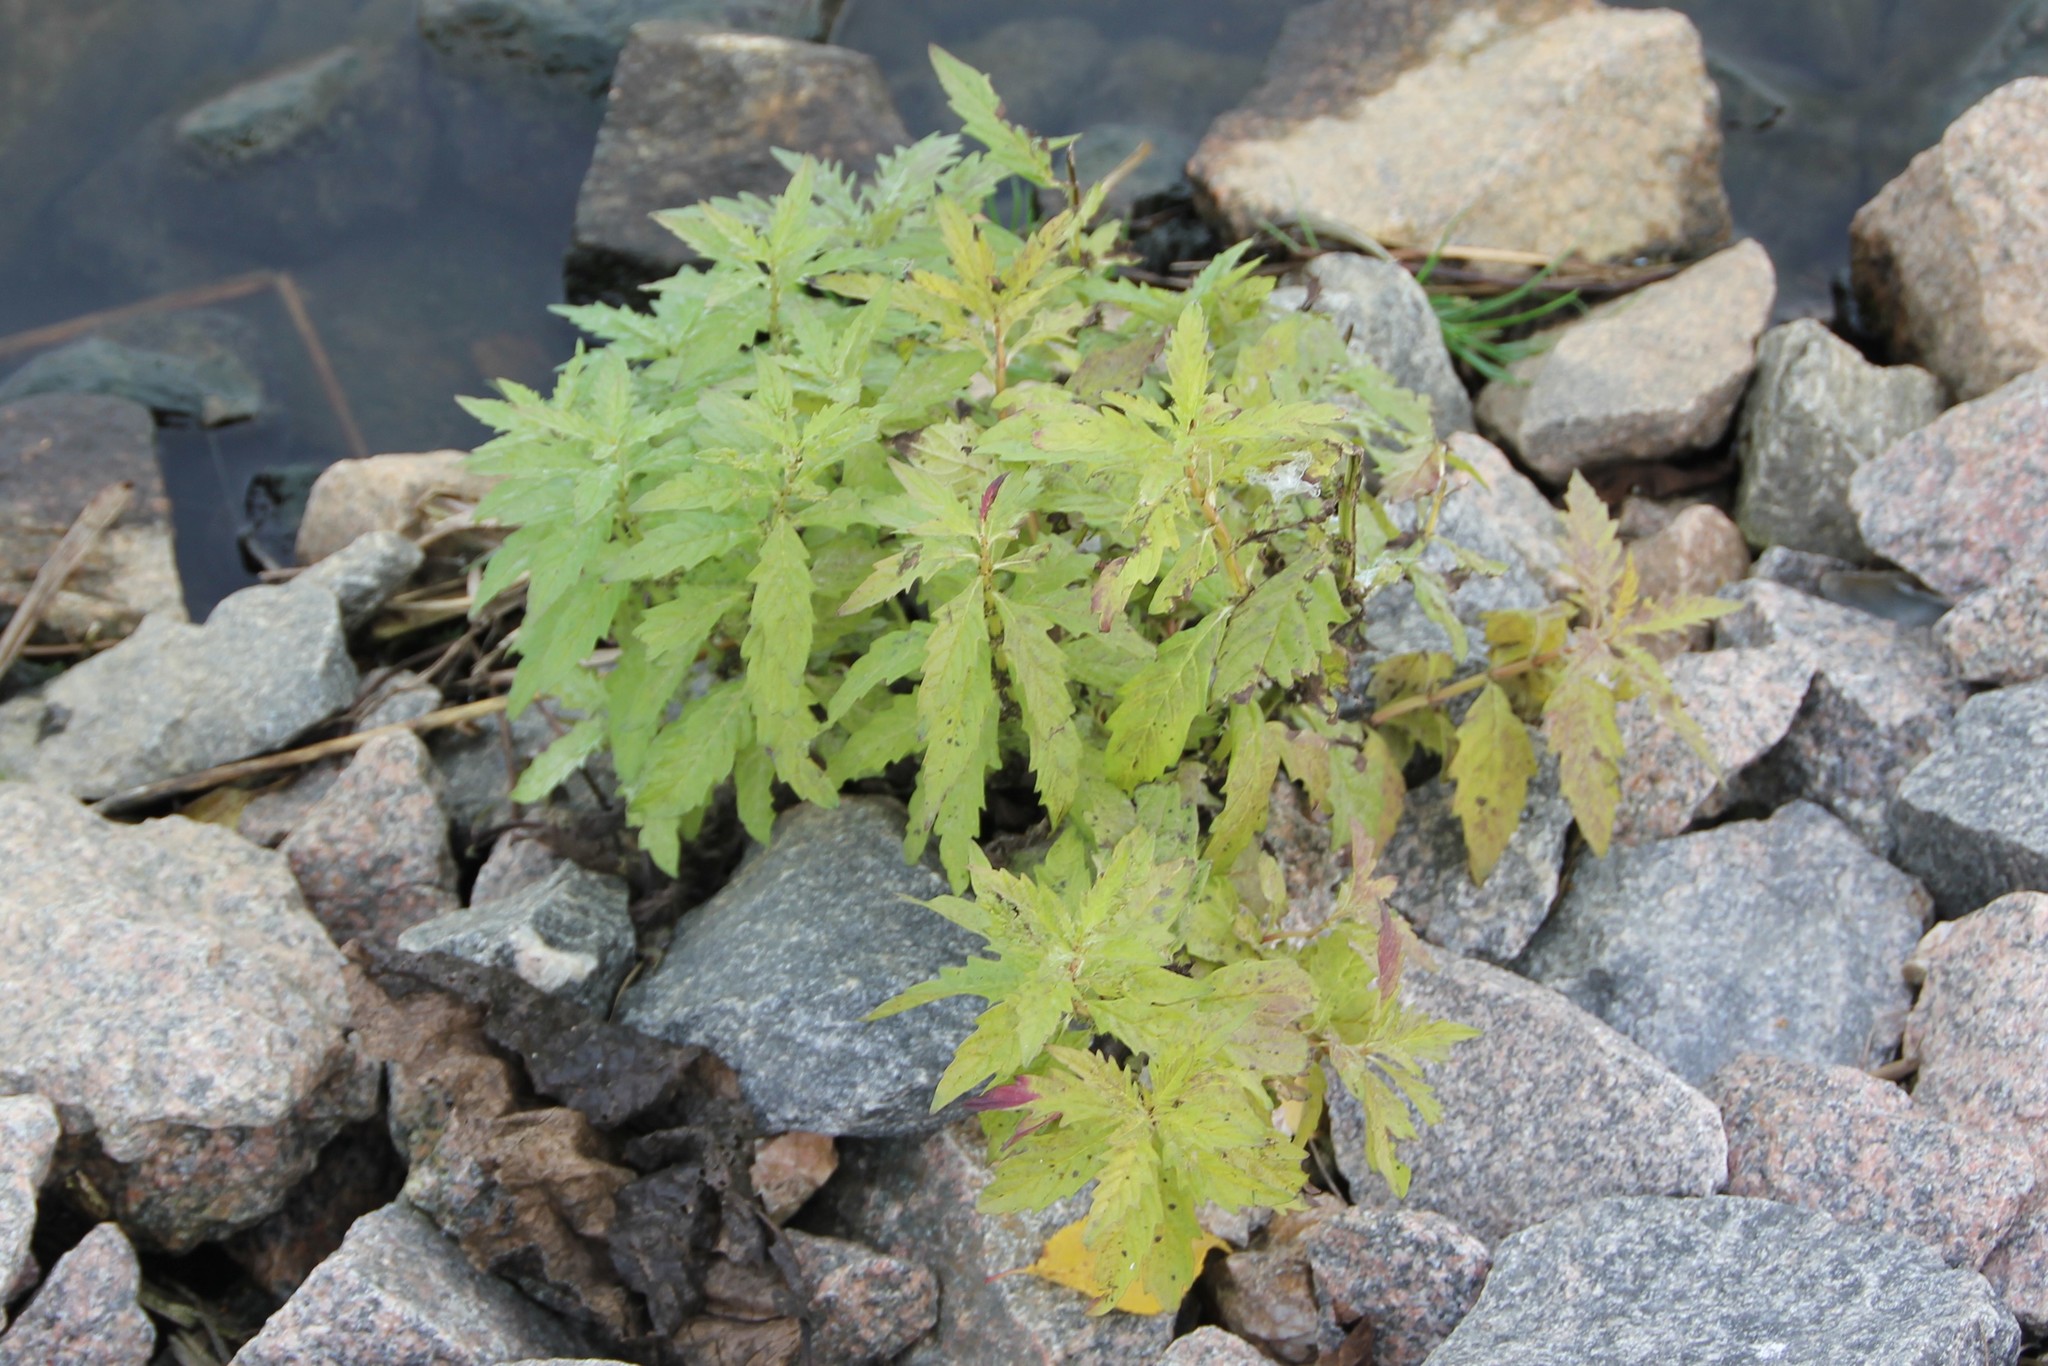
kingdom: Plantae
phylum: Tracheophyta
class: Magnoliopsida
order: Lamiales
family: Lamiaceae
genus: Lycopus
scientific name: Lycopus europaeus
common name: European bugleweed
